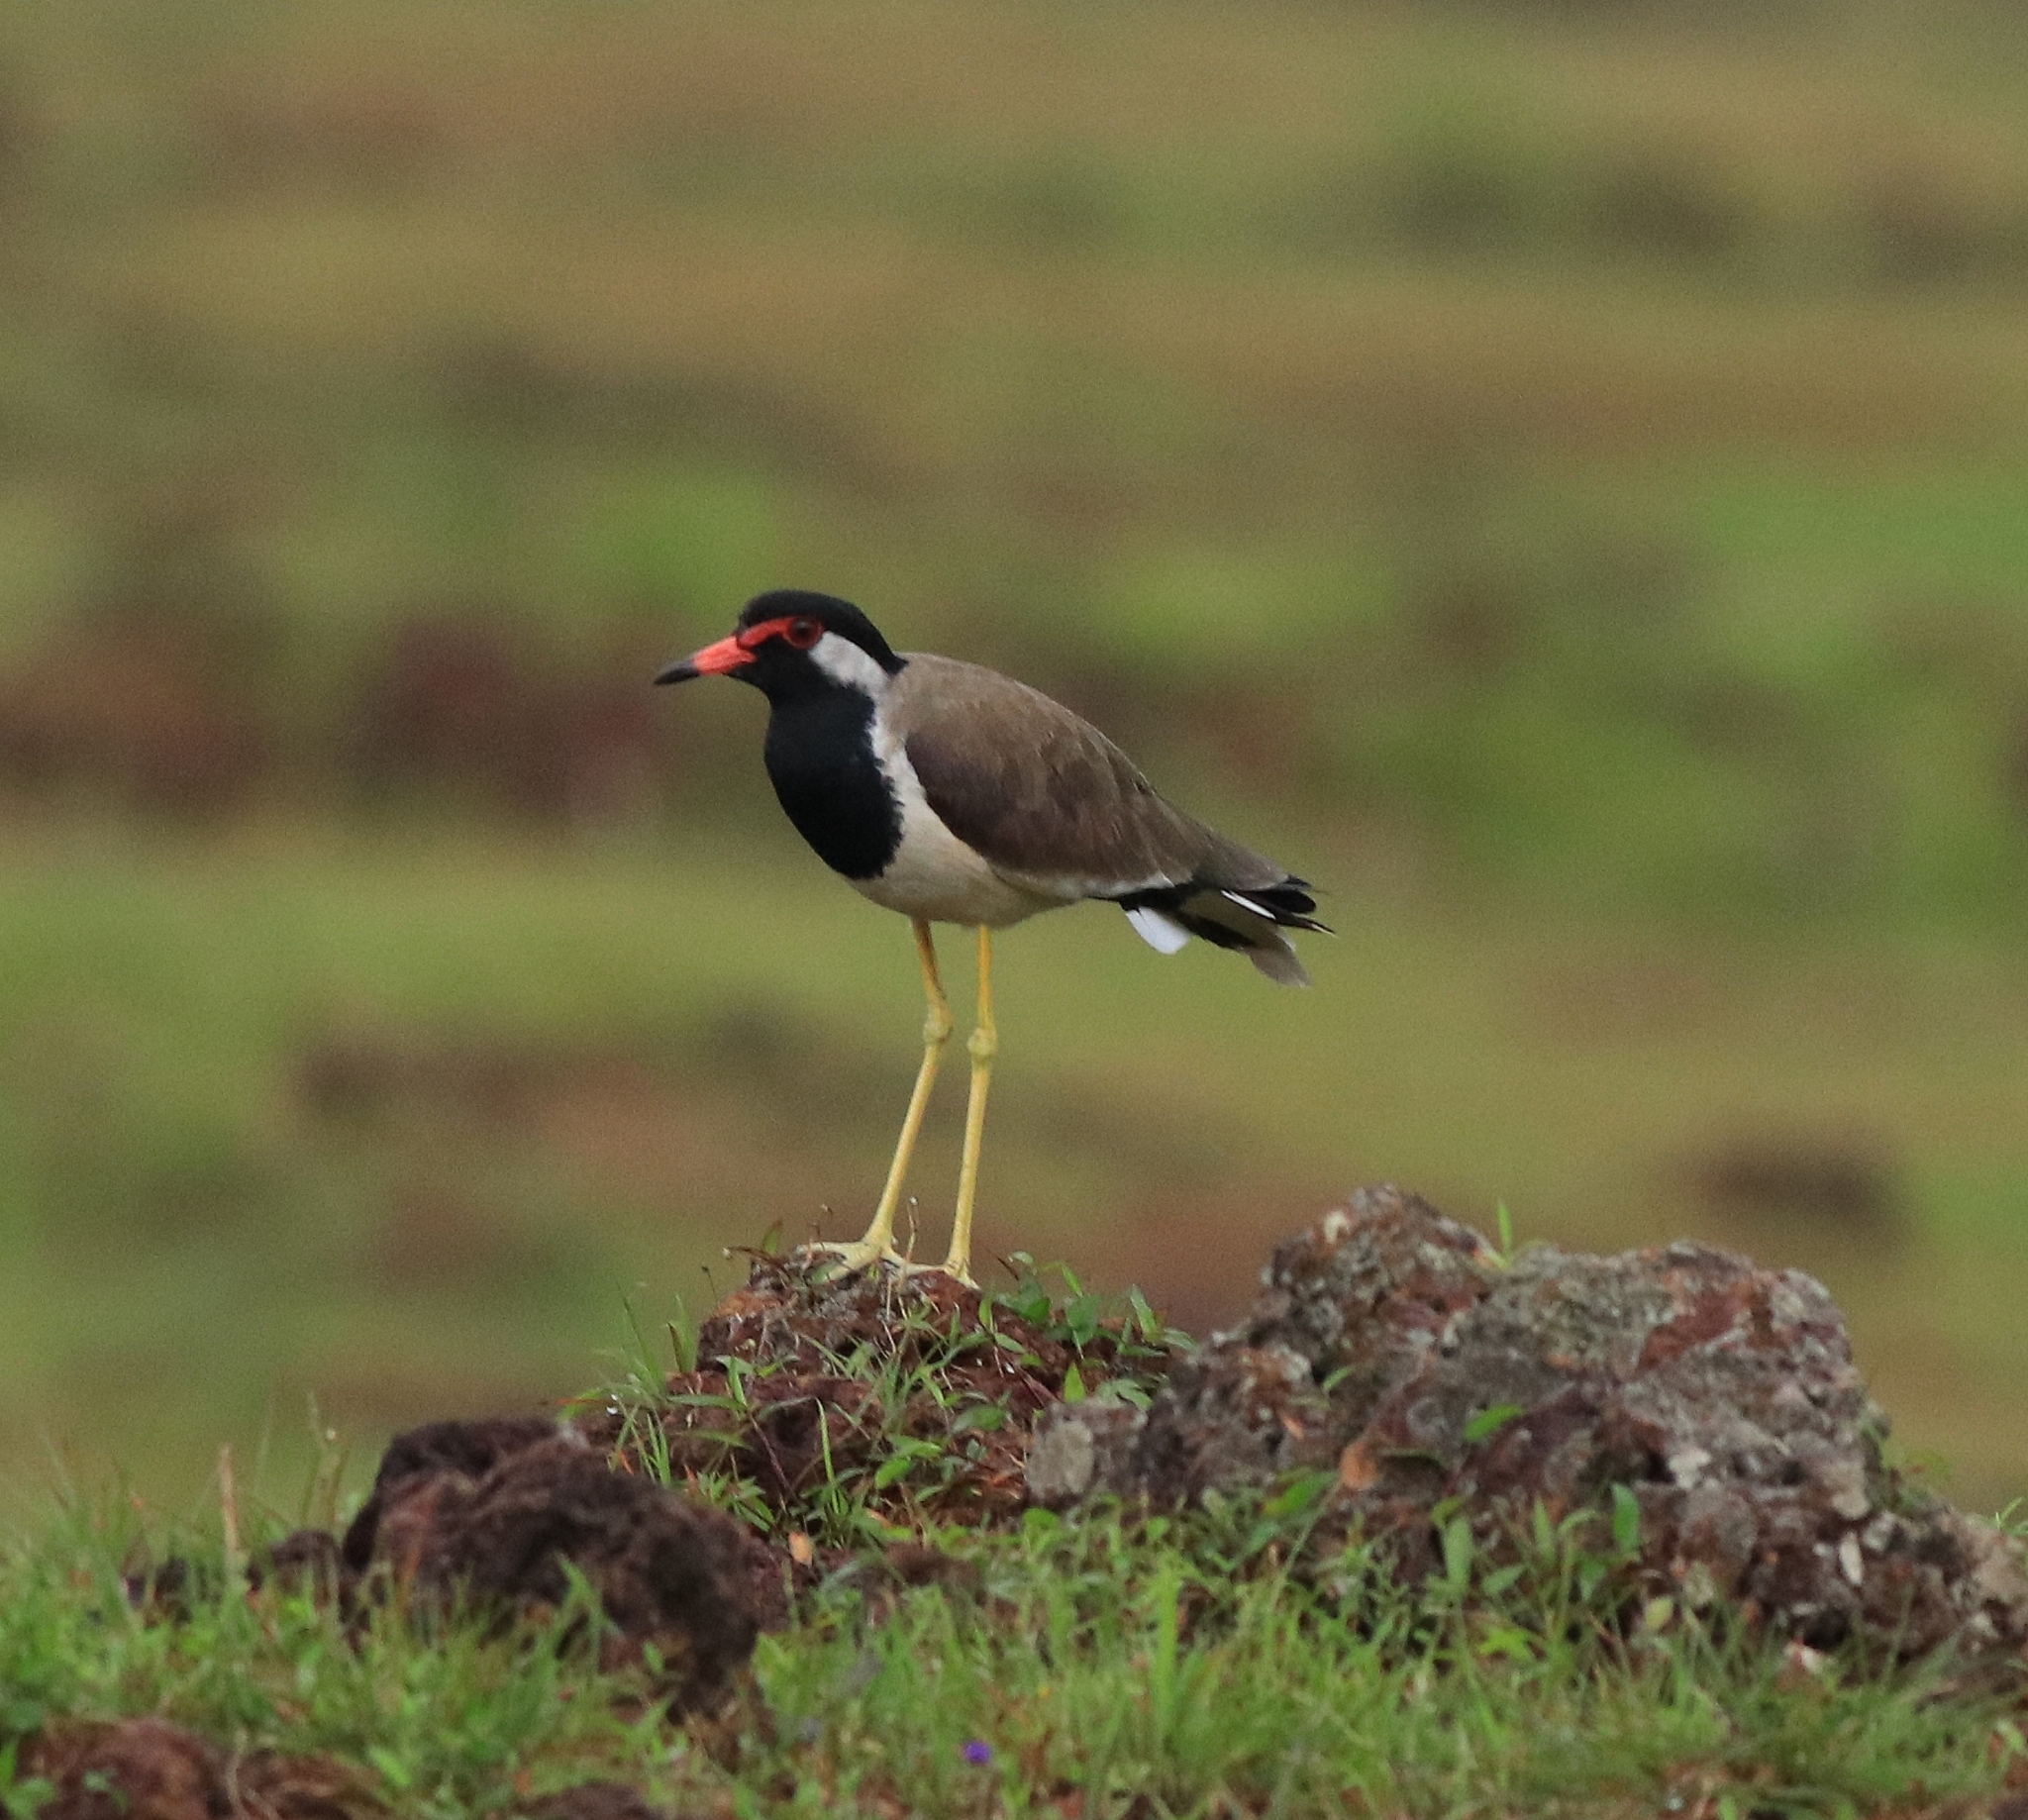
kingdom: Animalia
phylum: Chordata
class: Aves
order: Charadriiformes
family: Charadriidae
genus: Vanellus
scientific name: Vanellus indicus
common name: Red-wattled lapwing
